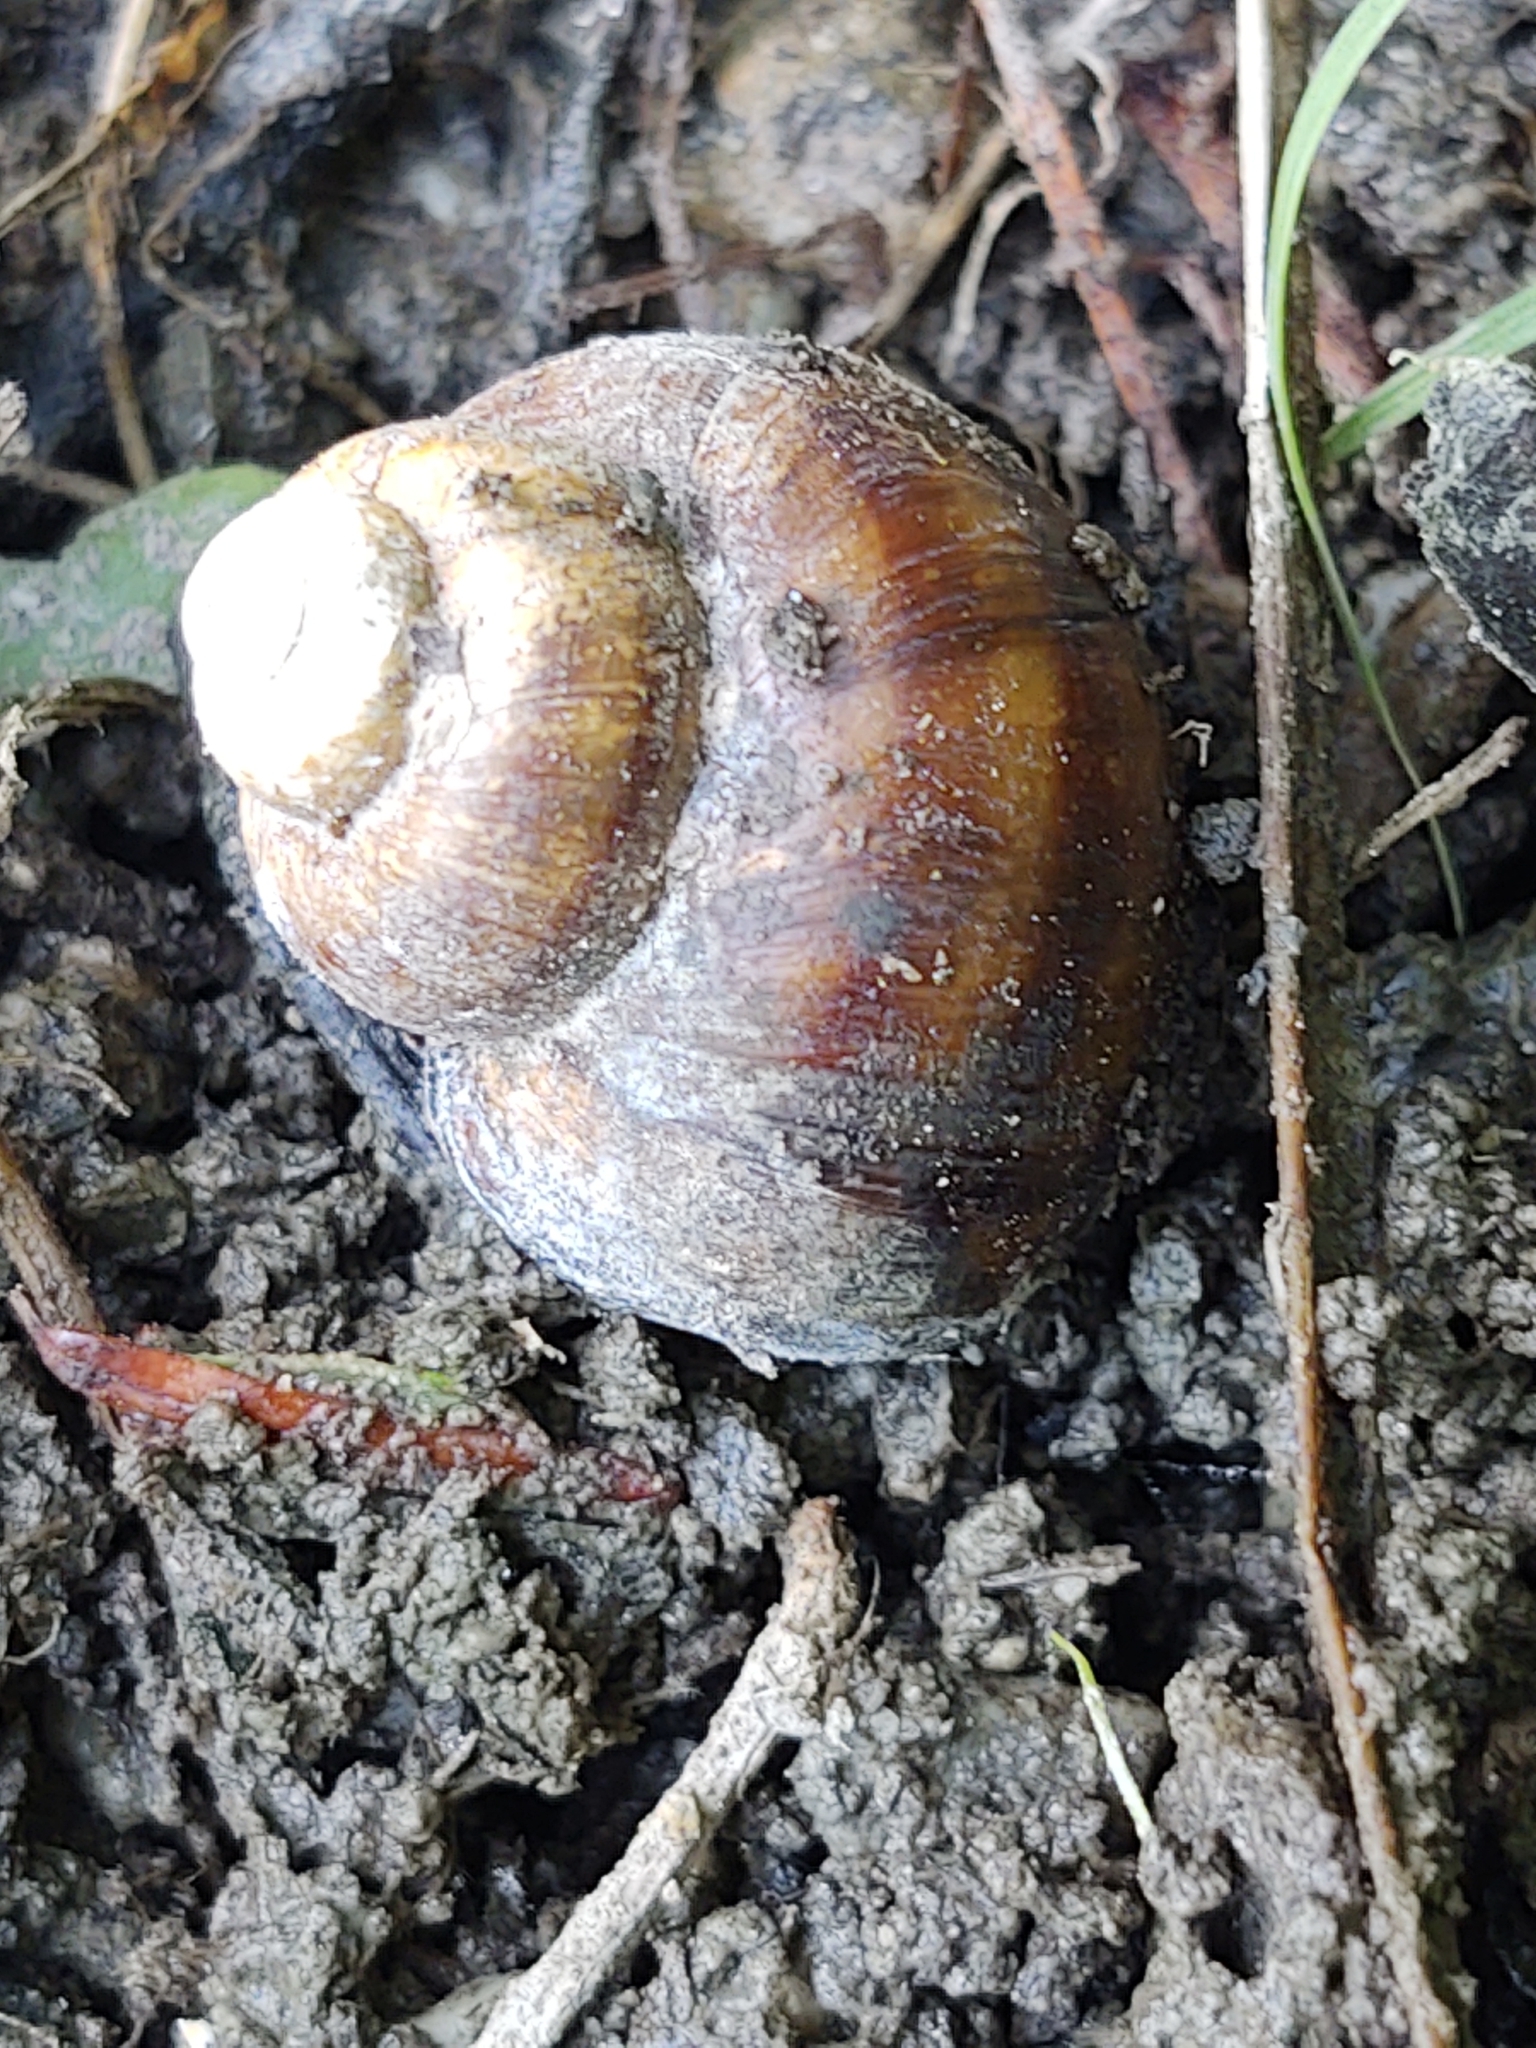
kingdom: Animalia
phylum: Mollusca
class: Gastropoda
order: Architaenioglossa
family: Viviparidae
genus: Callinina
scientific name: Callinina georgiana
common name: Banded mystery snail
